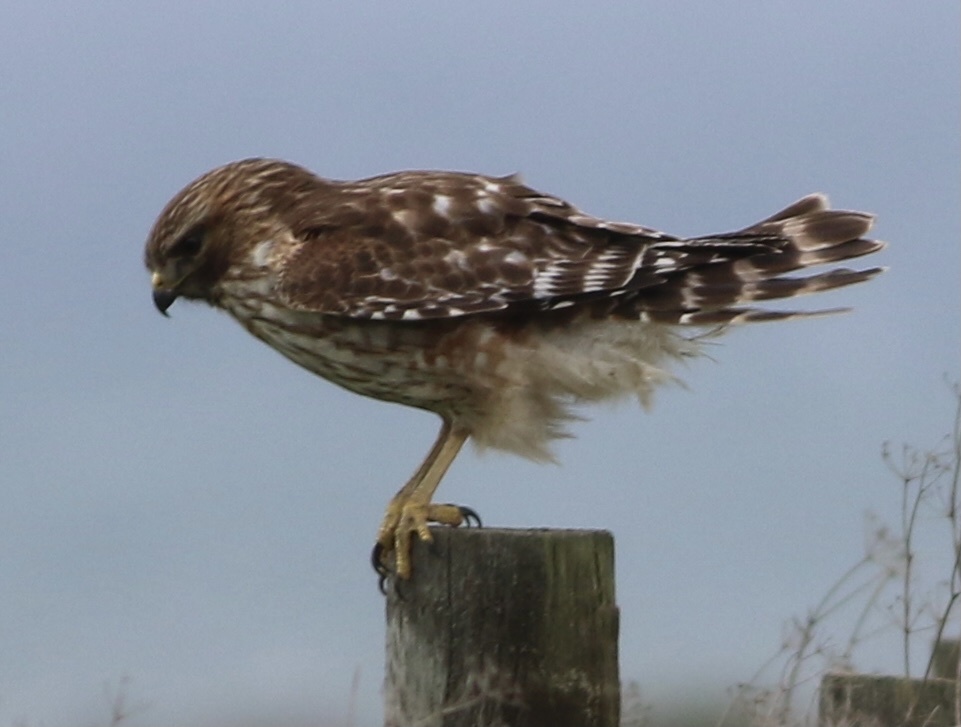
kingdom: Animalia
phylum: Chordata
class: Aves
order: Accipitriformes
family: Accipitridae
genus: Buteo
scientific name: Buteo lineatus
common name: Red-shouldered hawk
